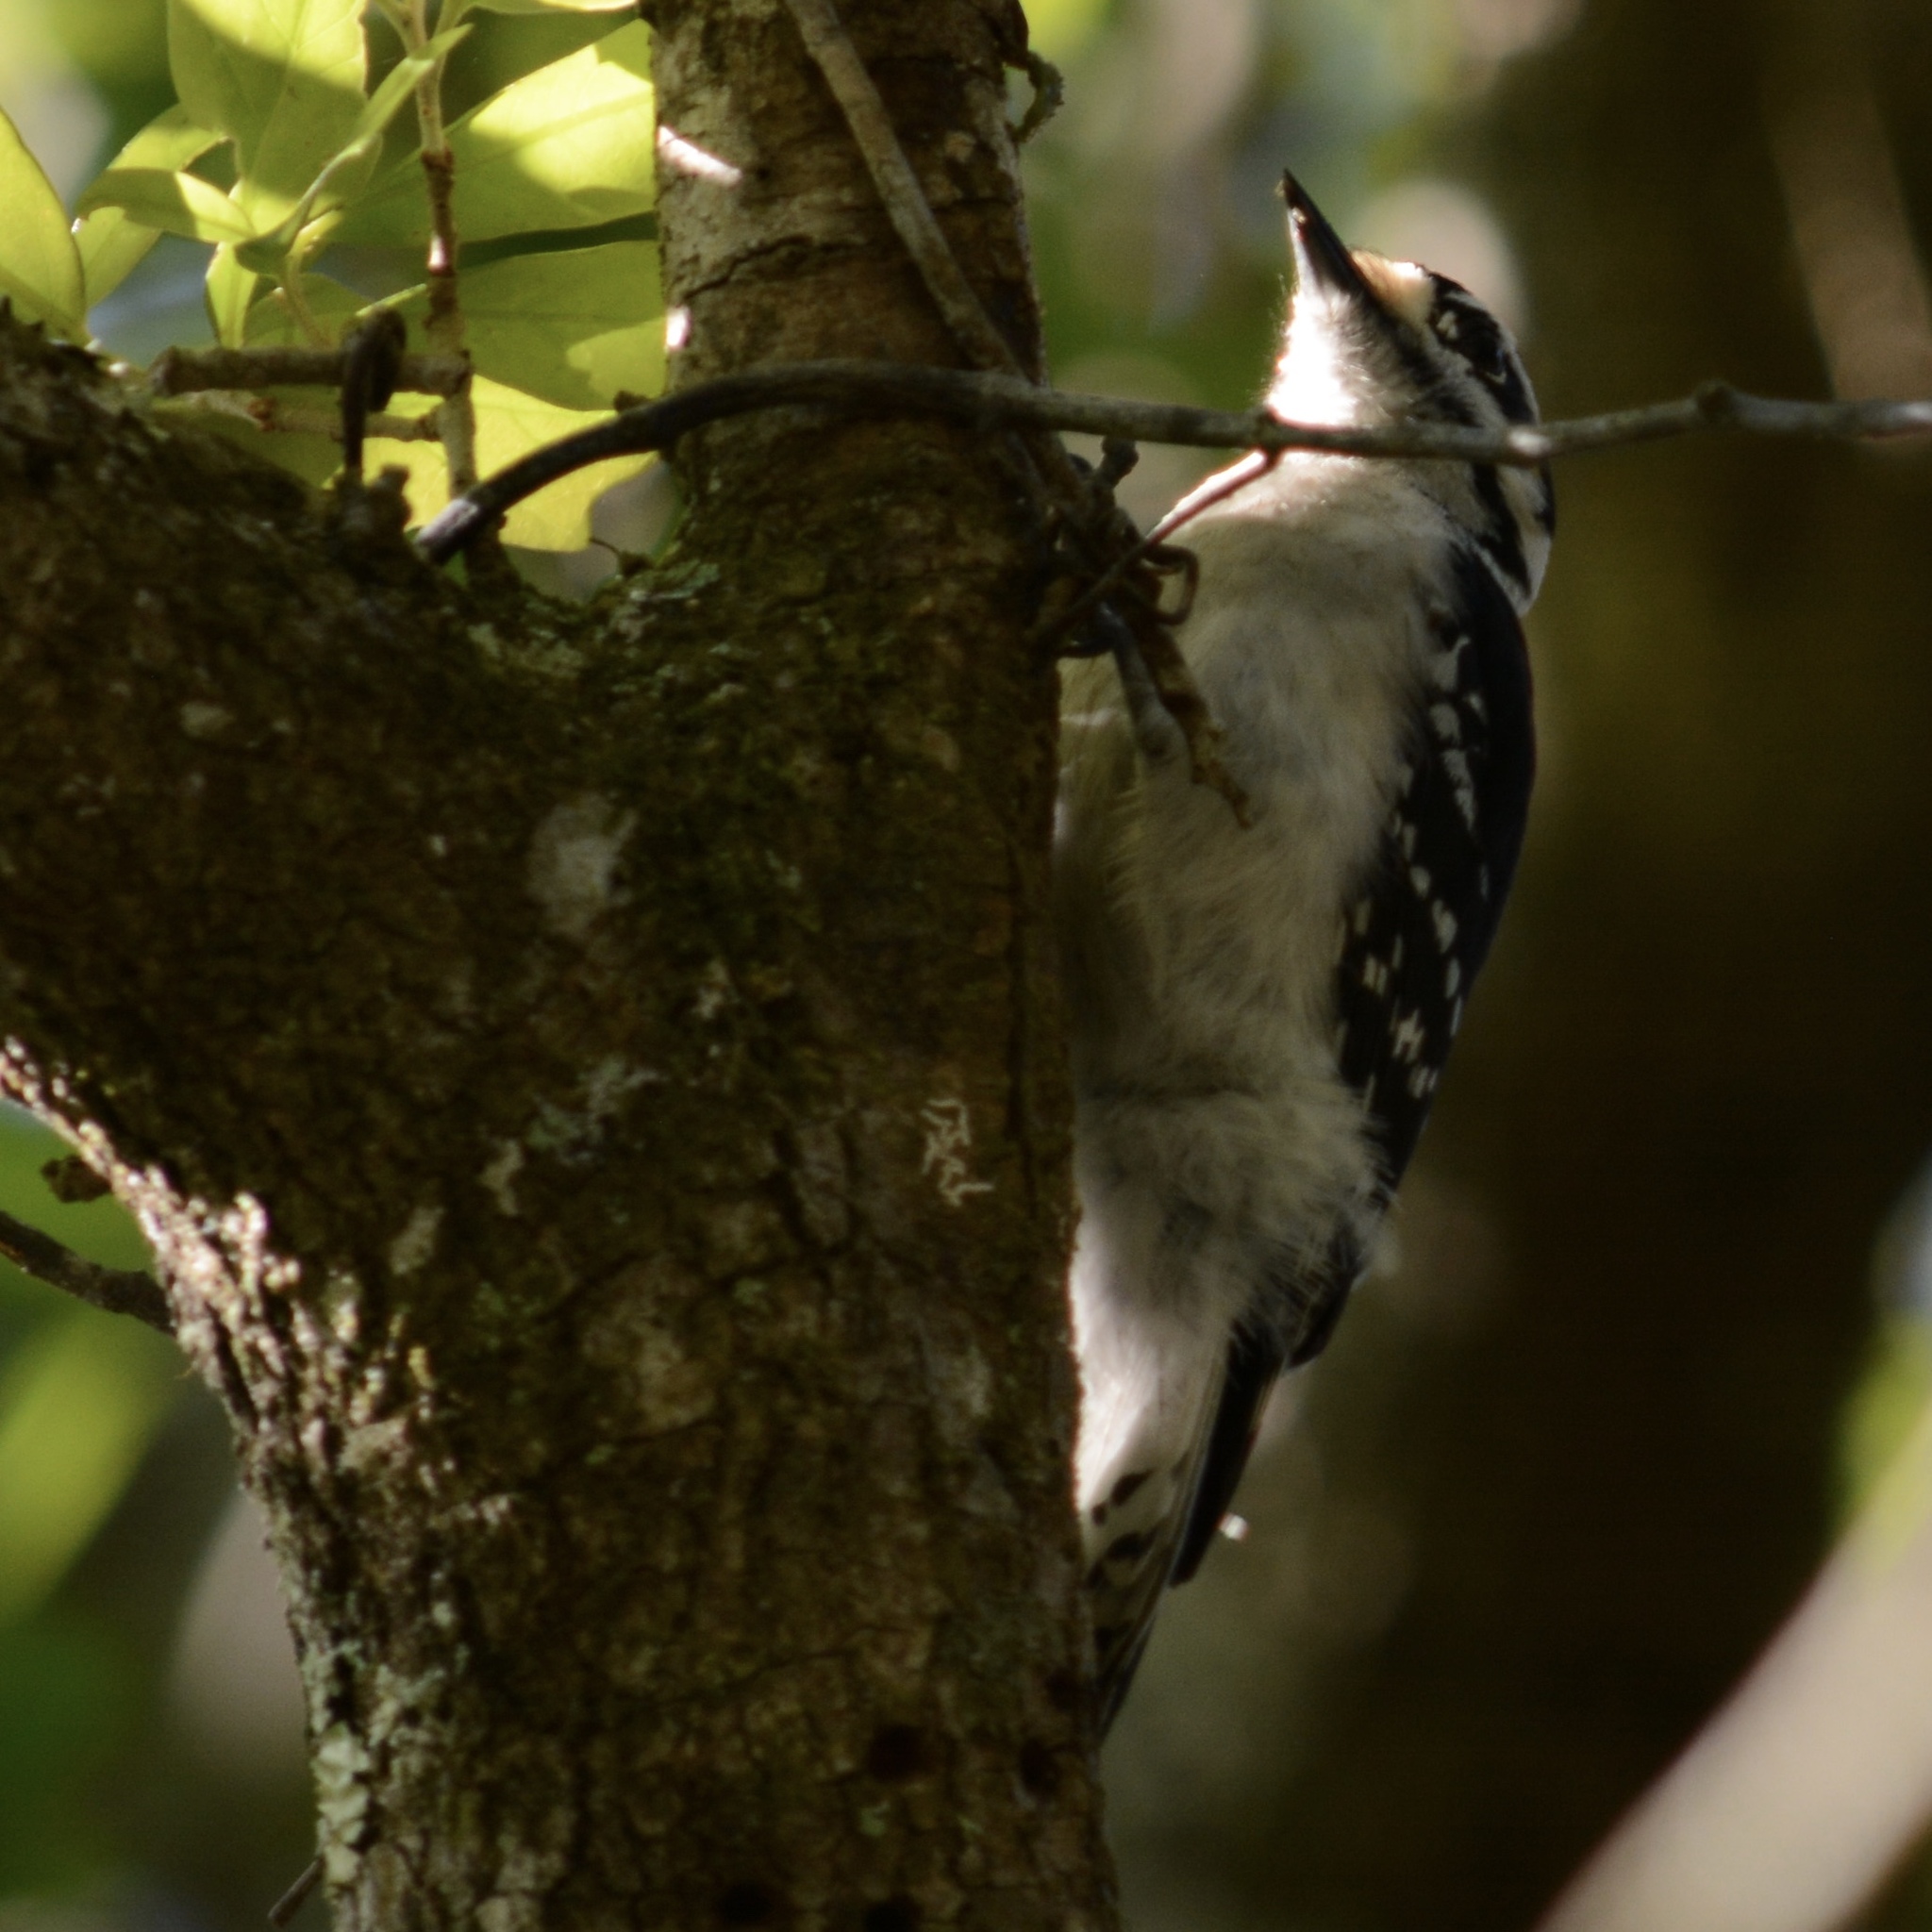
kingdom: Animalia
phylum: Chordata
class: Aves
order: Piciformes
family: Picidae
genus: Dryobates
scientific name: Dryobates pubescens
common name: Downy woodpecker
